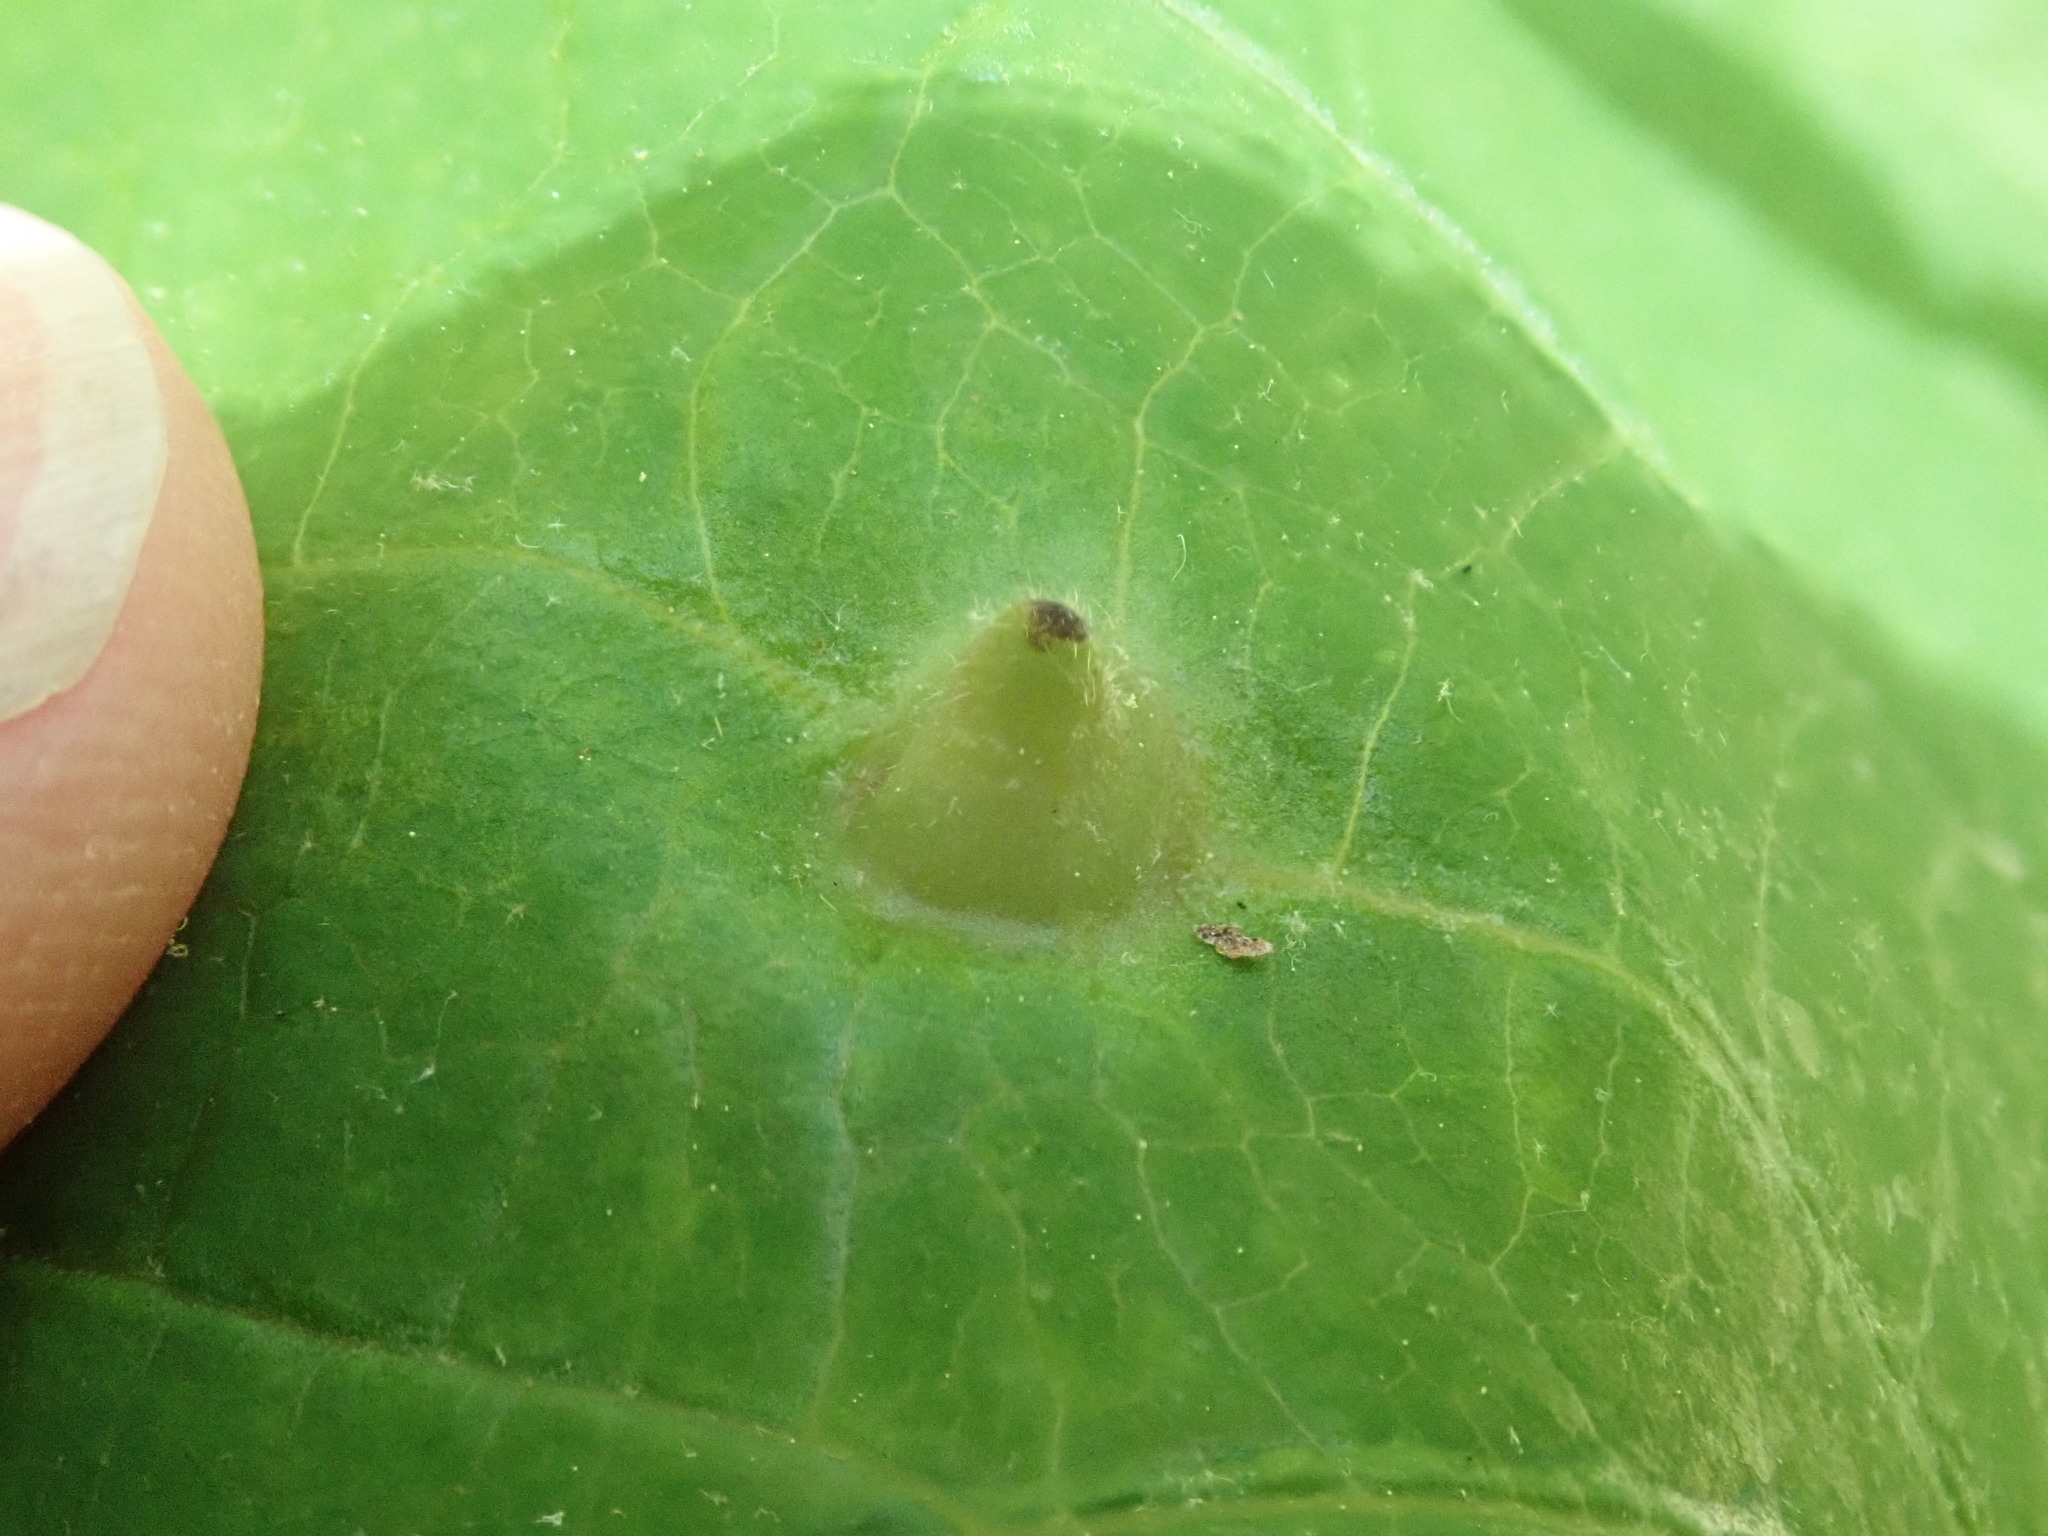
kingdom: Animalia
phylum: Arthropoda
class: Insecta
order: Hemiptera
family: Aphididae
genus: Hormaphis
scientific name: Hormaphis hamamelidis
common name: Witch-hazel cone gall aphid
